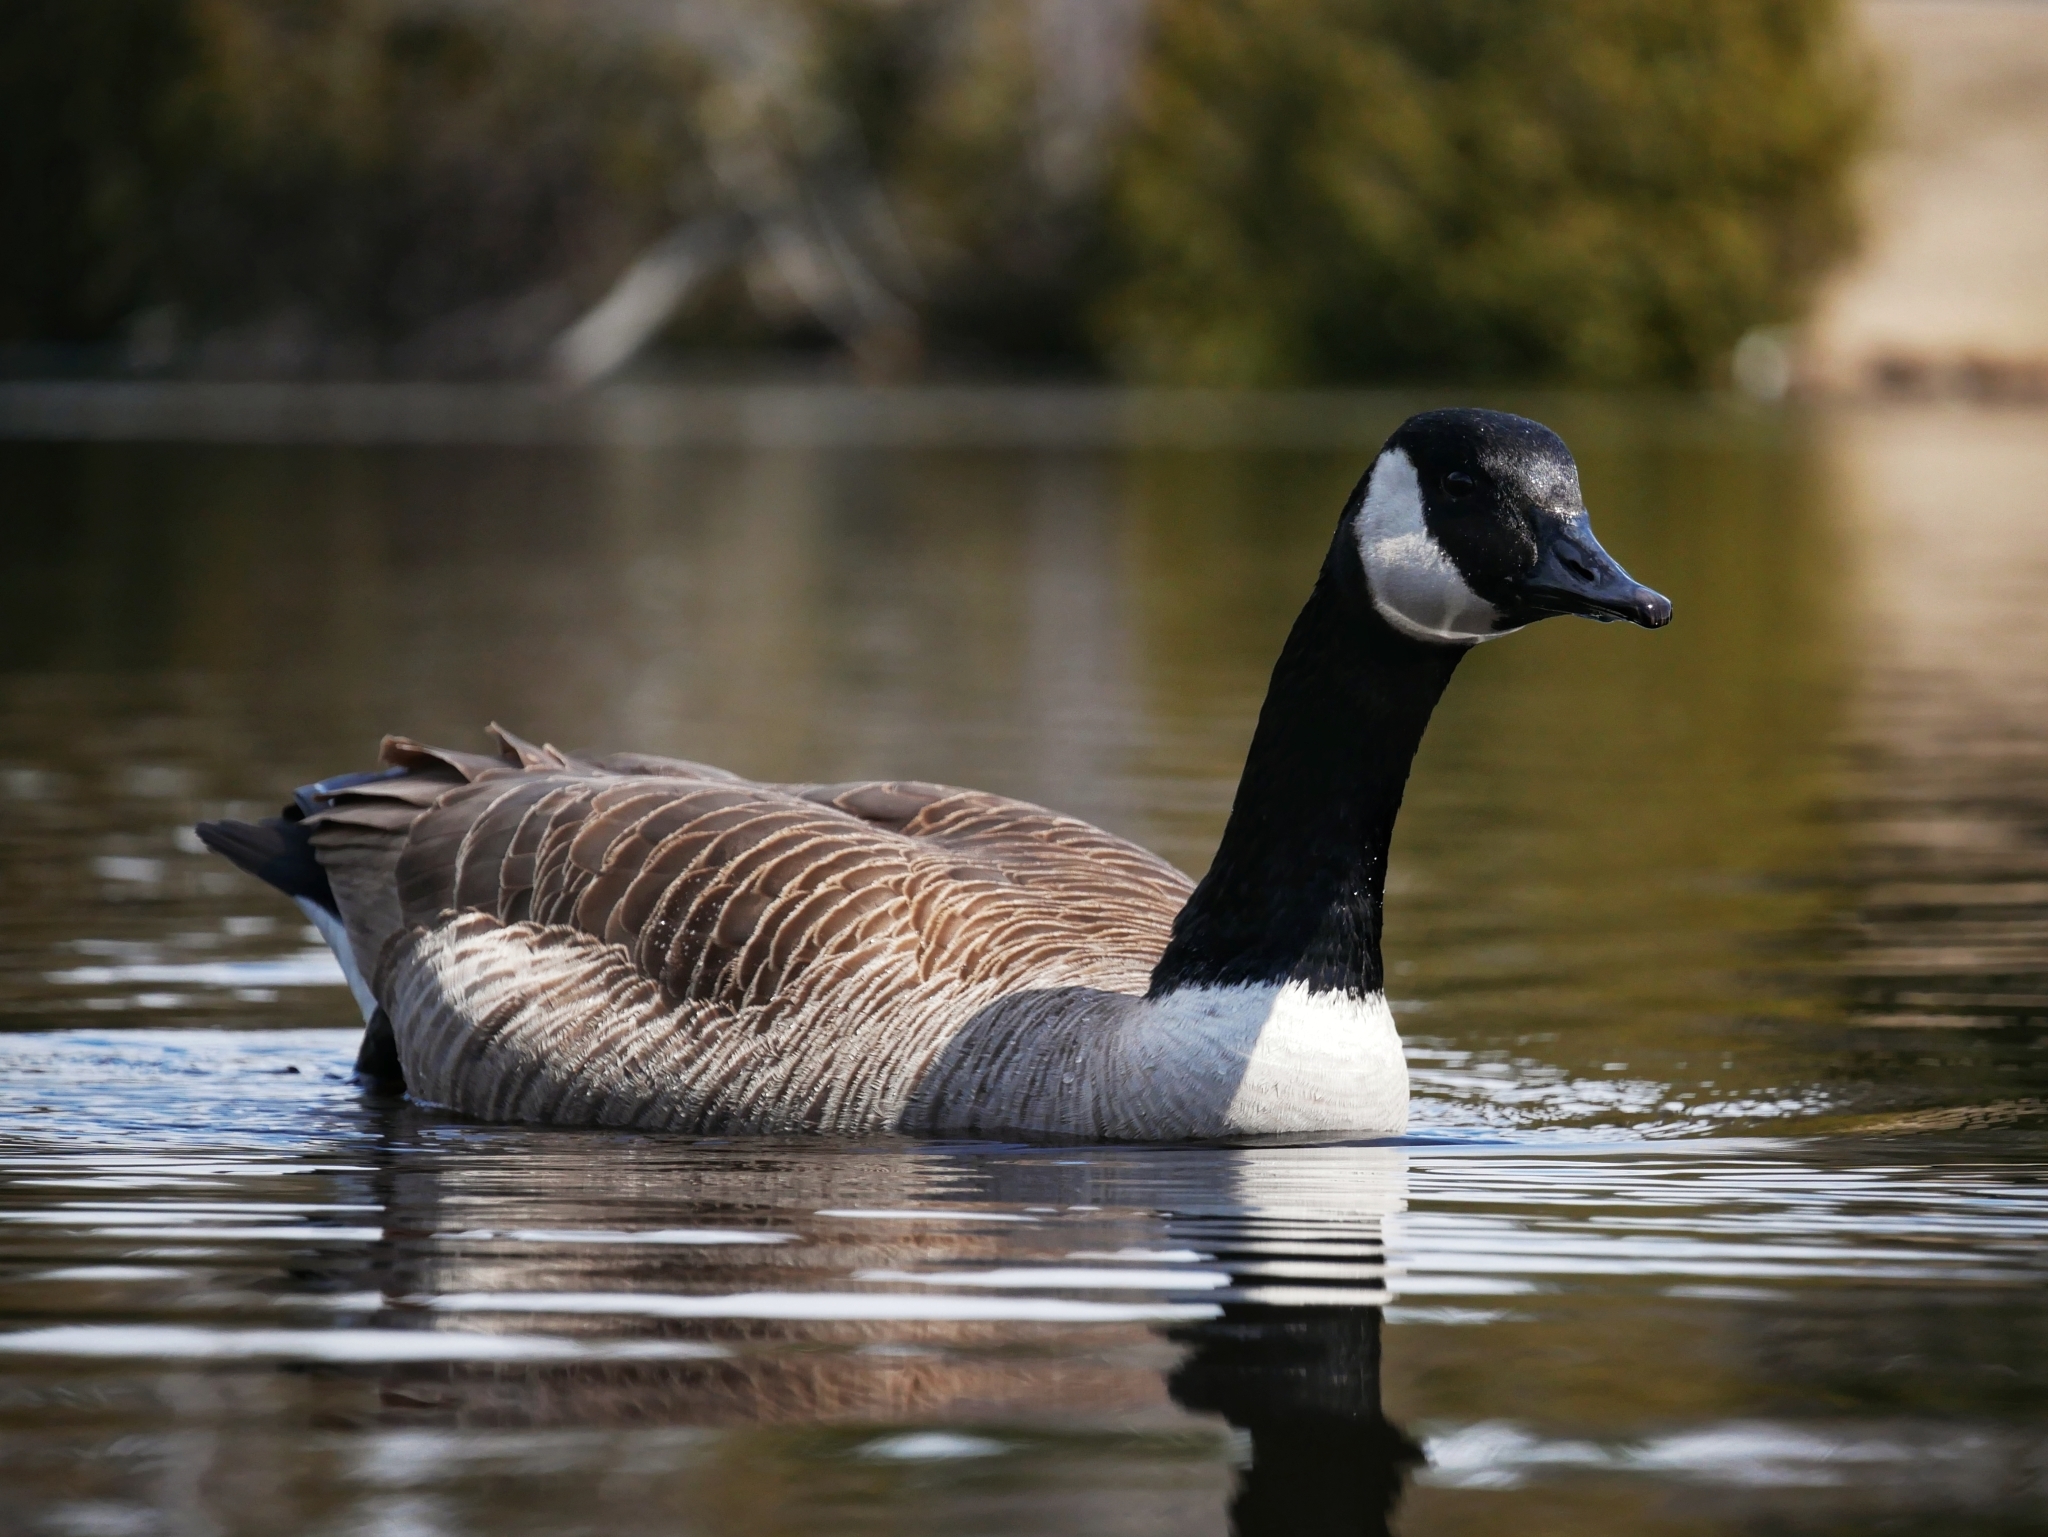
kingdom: Animalia
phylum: Chordata
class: Aves
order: Anseriformes
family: Anatidae
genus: Branta
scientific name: Branta canadensis
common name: Canada goose
